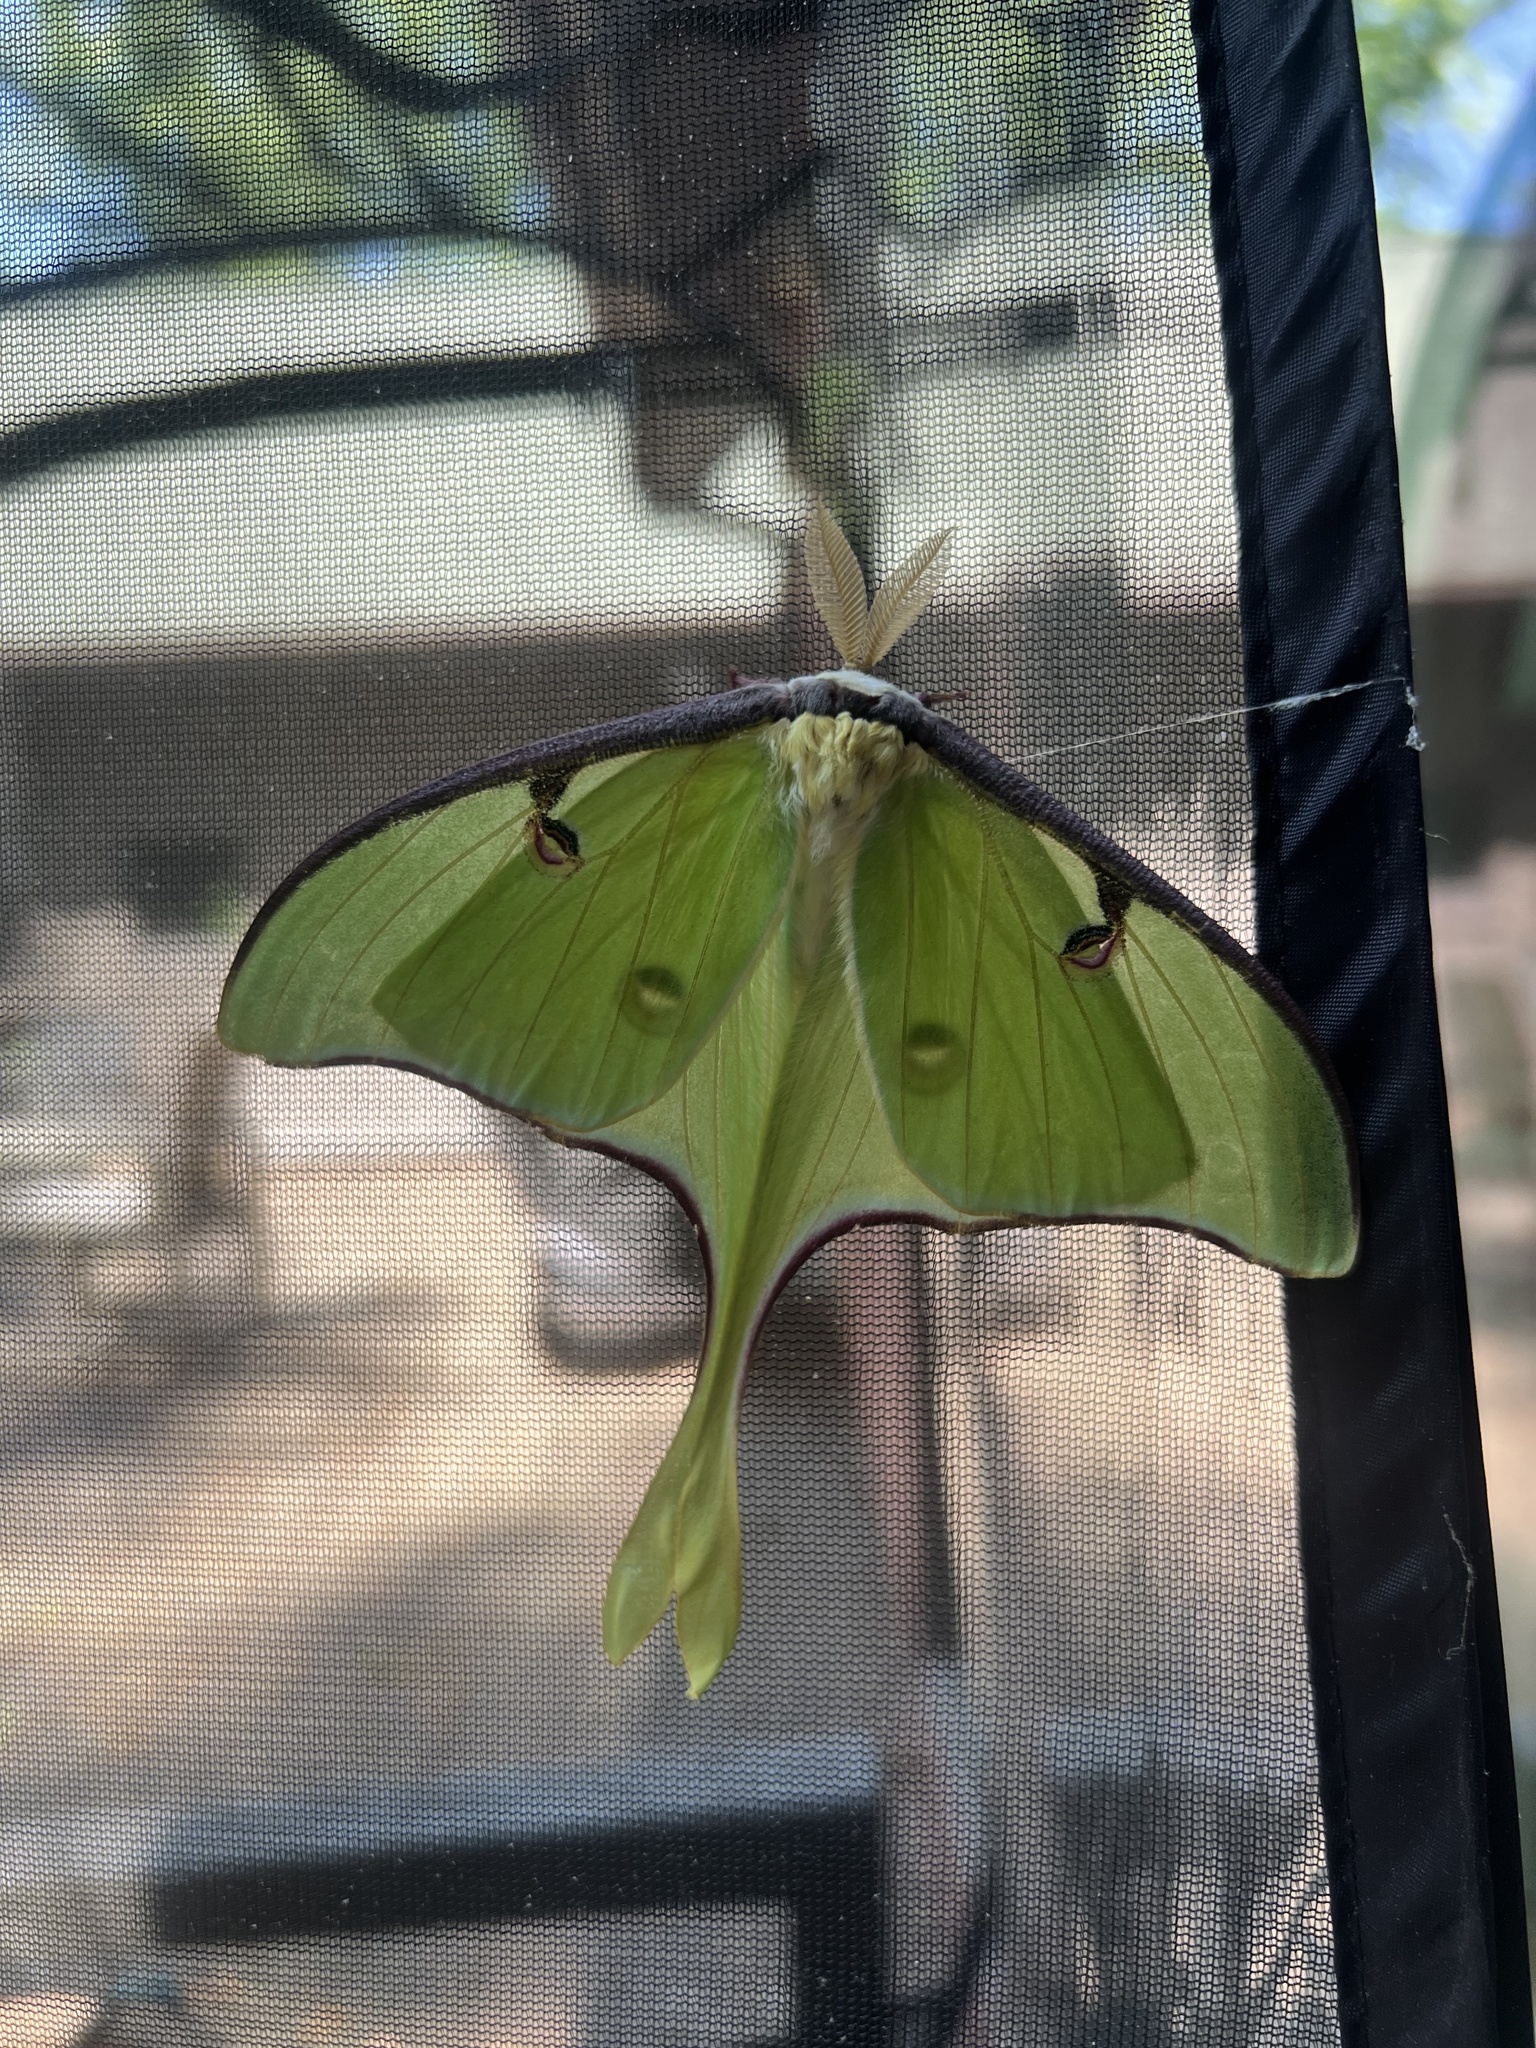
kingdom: Animalia
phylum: Arthropoda
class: Insecta
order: Lepidoptera
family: Saturniidae
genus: Actias
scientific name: Actias luna
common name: Luna moth
